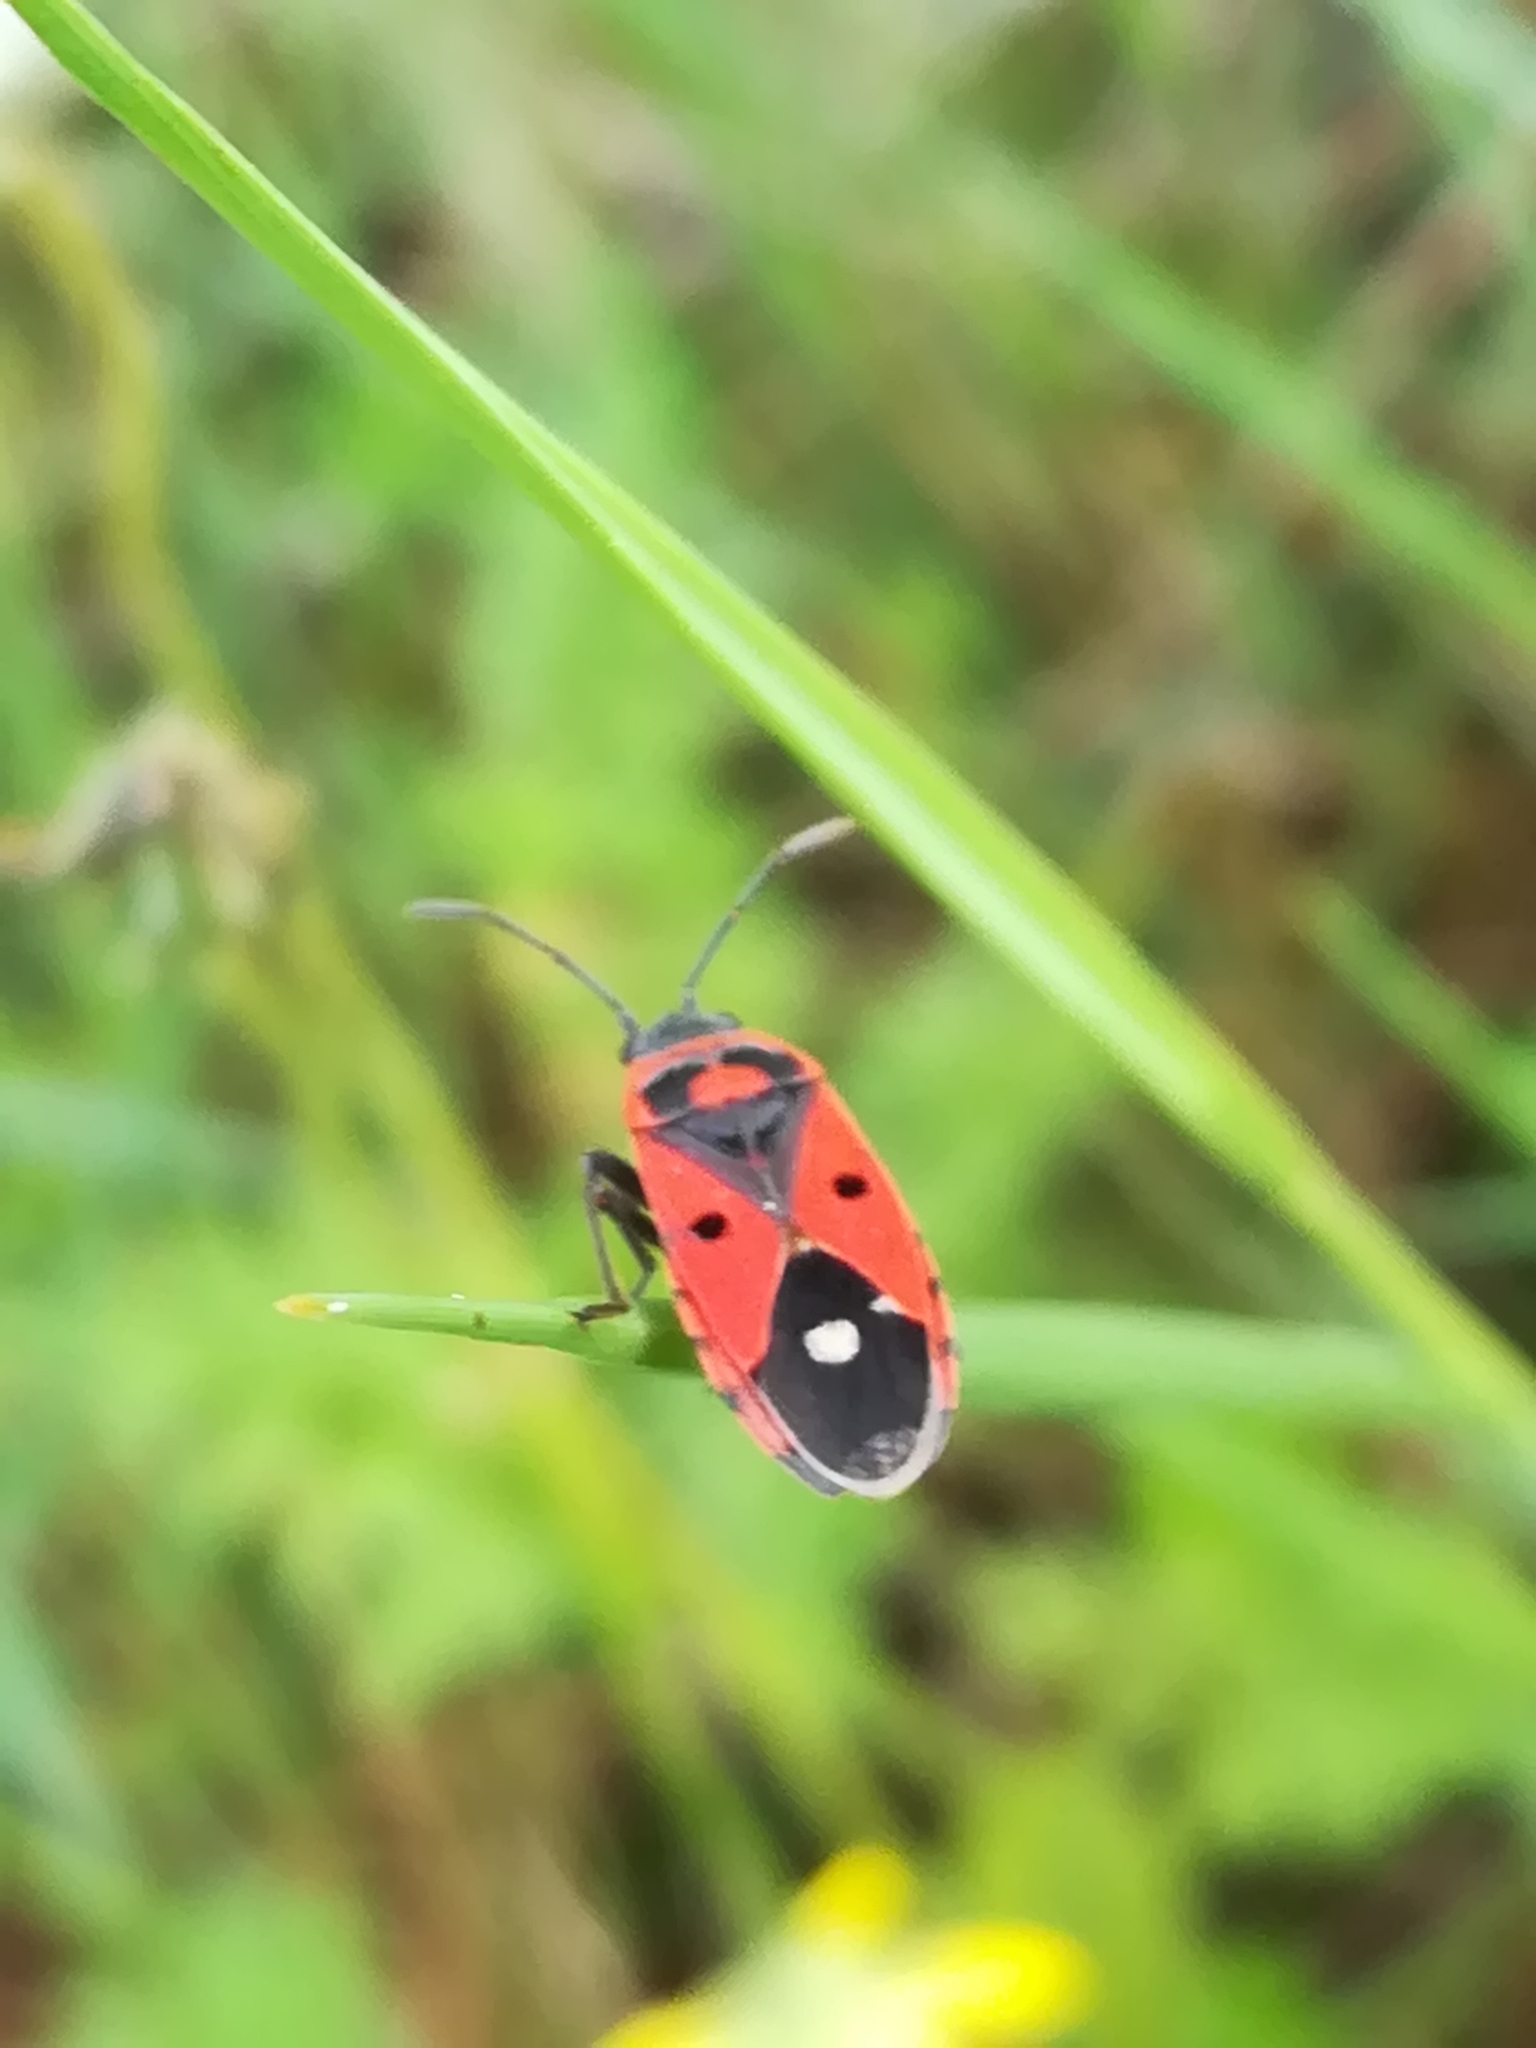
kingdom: Animalia
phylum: Arthropoda
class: Insecta
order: Hemiptera
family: Lygaeidae
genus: Melanocoryphus
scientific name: Melanocoryphus albomaculatus
